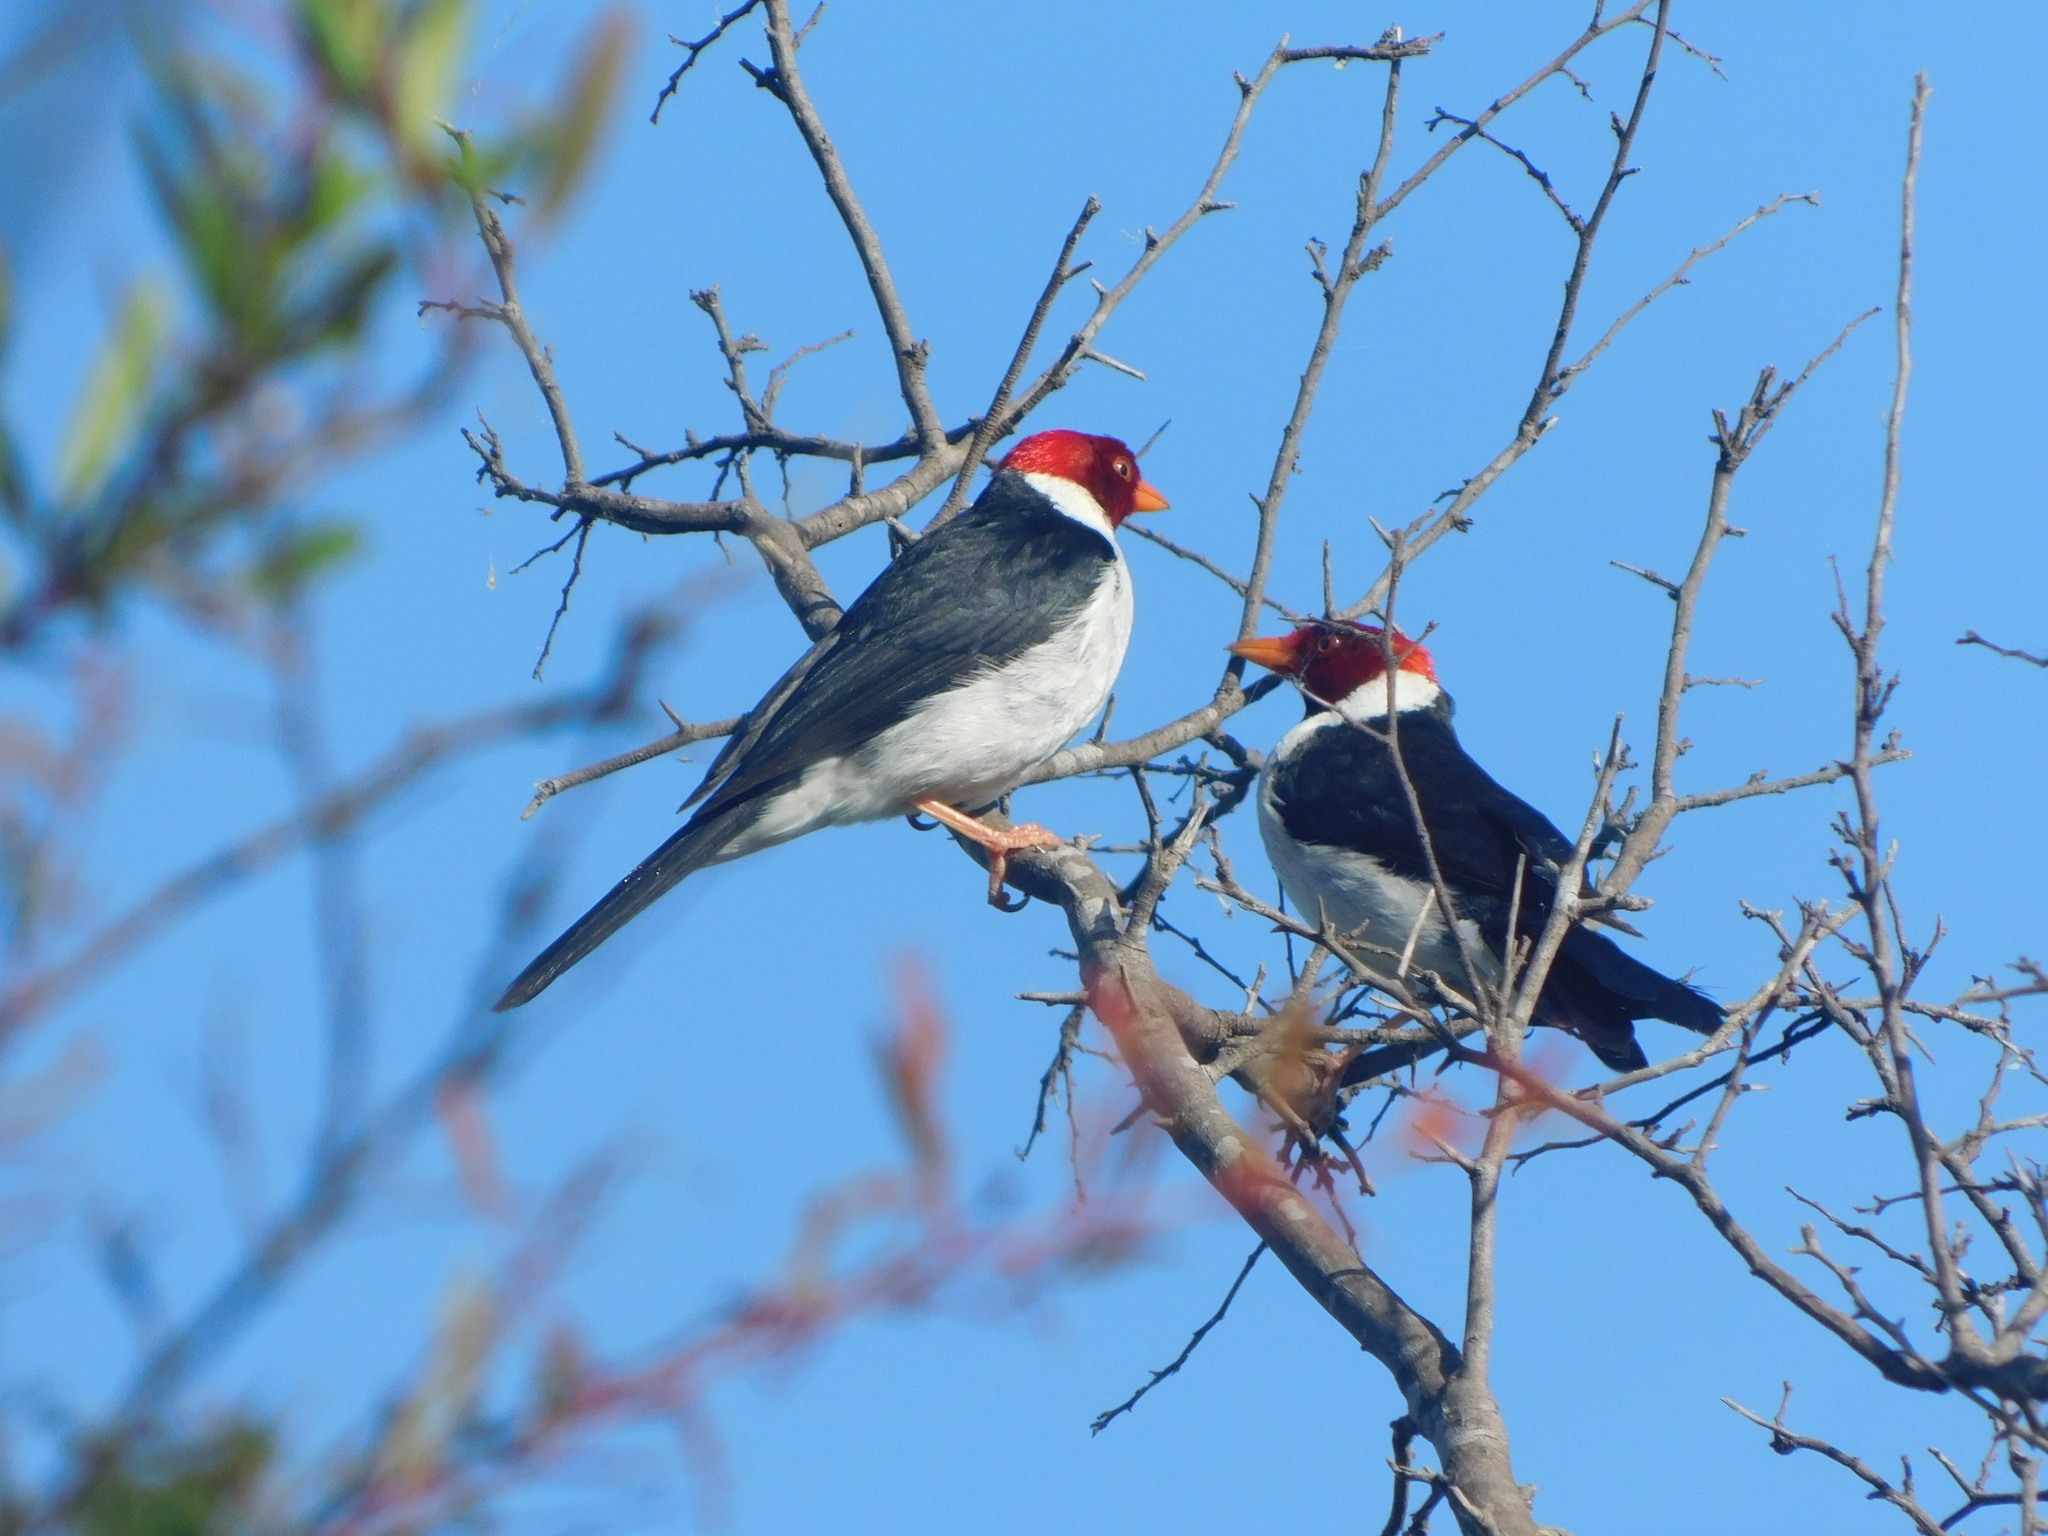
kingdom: Animalia
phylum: Chordata
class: Aves
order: Passeriformes
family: Thraupidae
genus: Paroaria
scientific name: Paroaria capitata
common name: Yellow-billed cardinal
